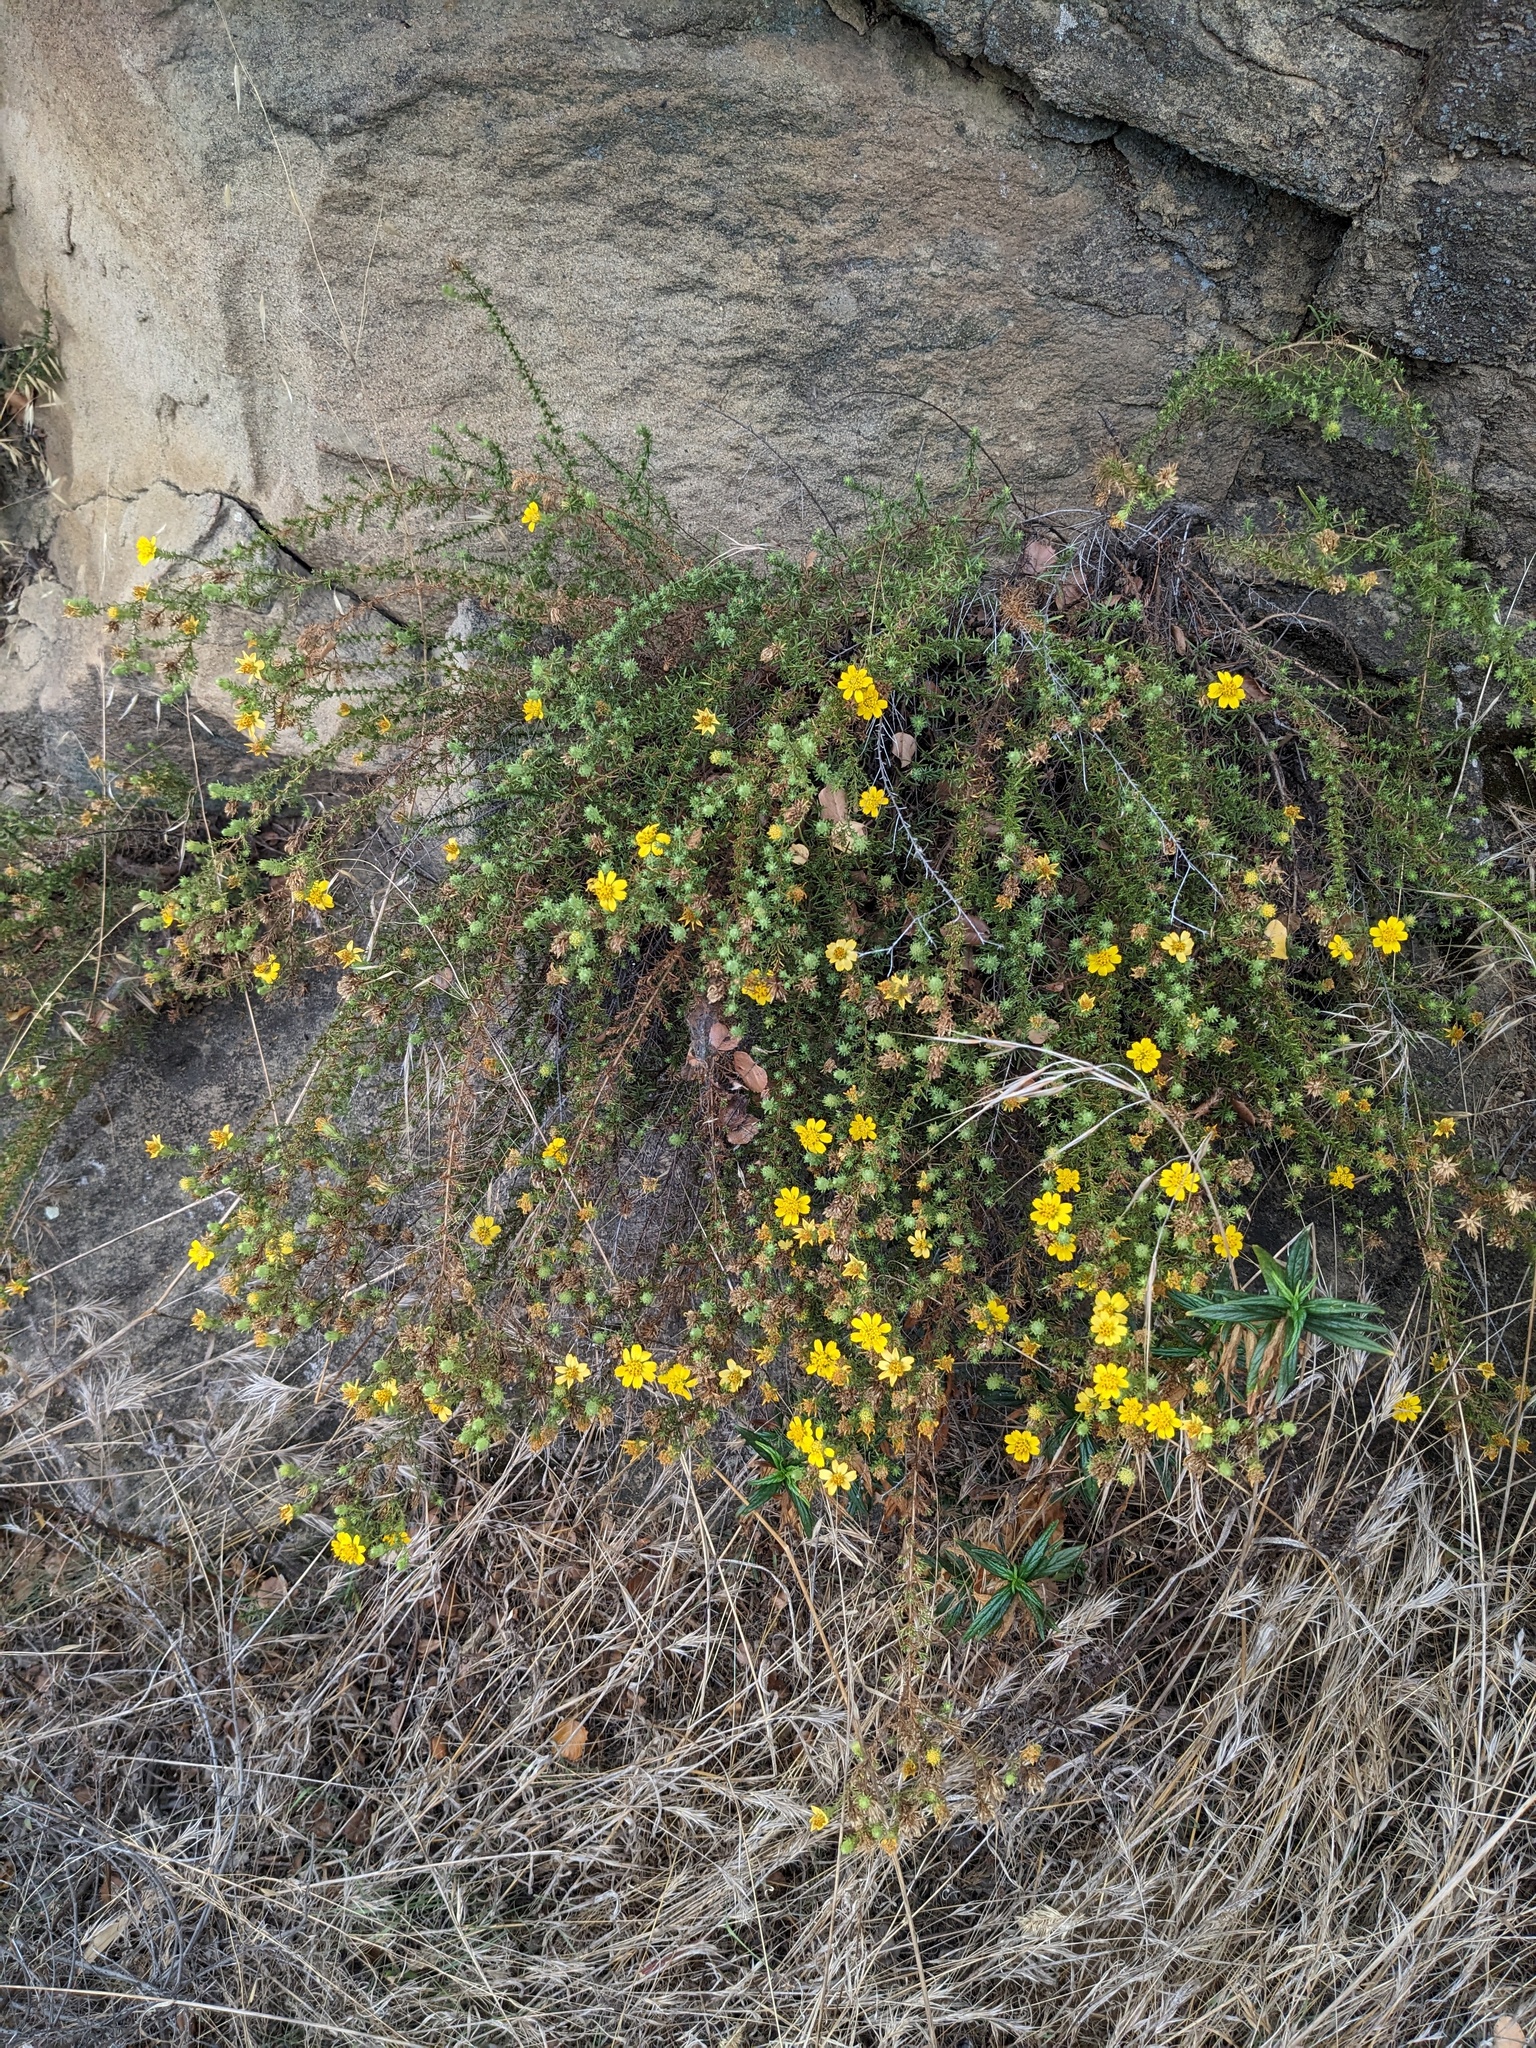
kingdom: Plantae
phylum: Tracheophyta
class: Magnoliopsida
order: Asterales
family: Asteraceae
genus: Deinandra
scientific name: Deinandra minthornii
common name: Santa susana tarplant
